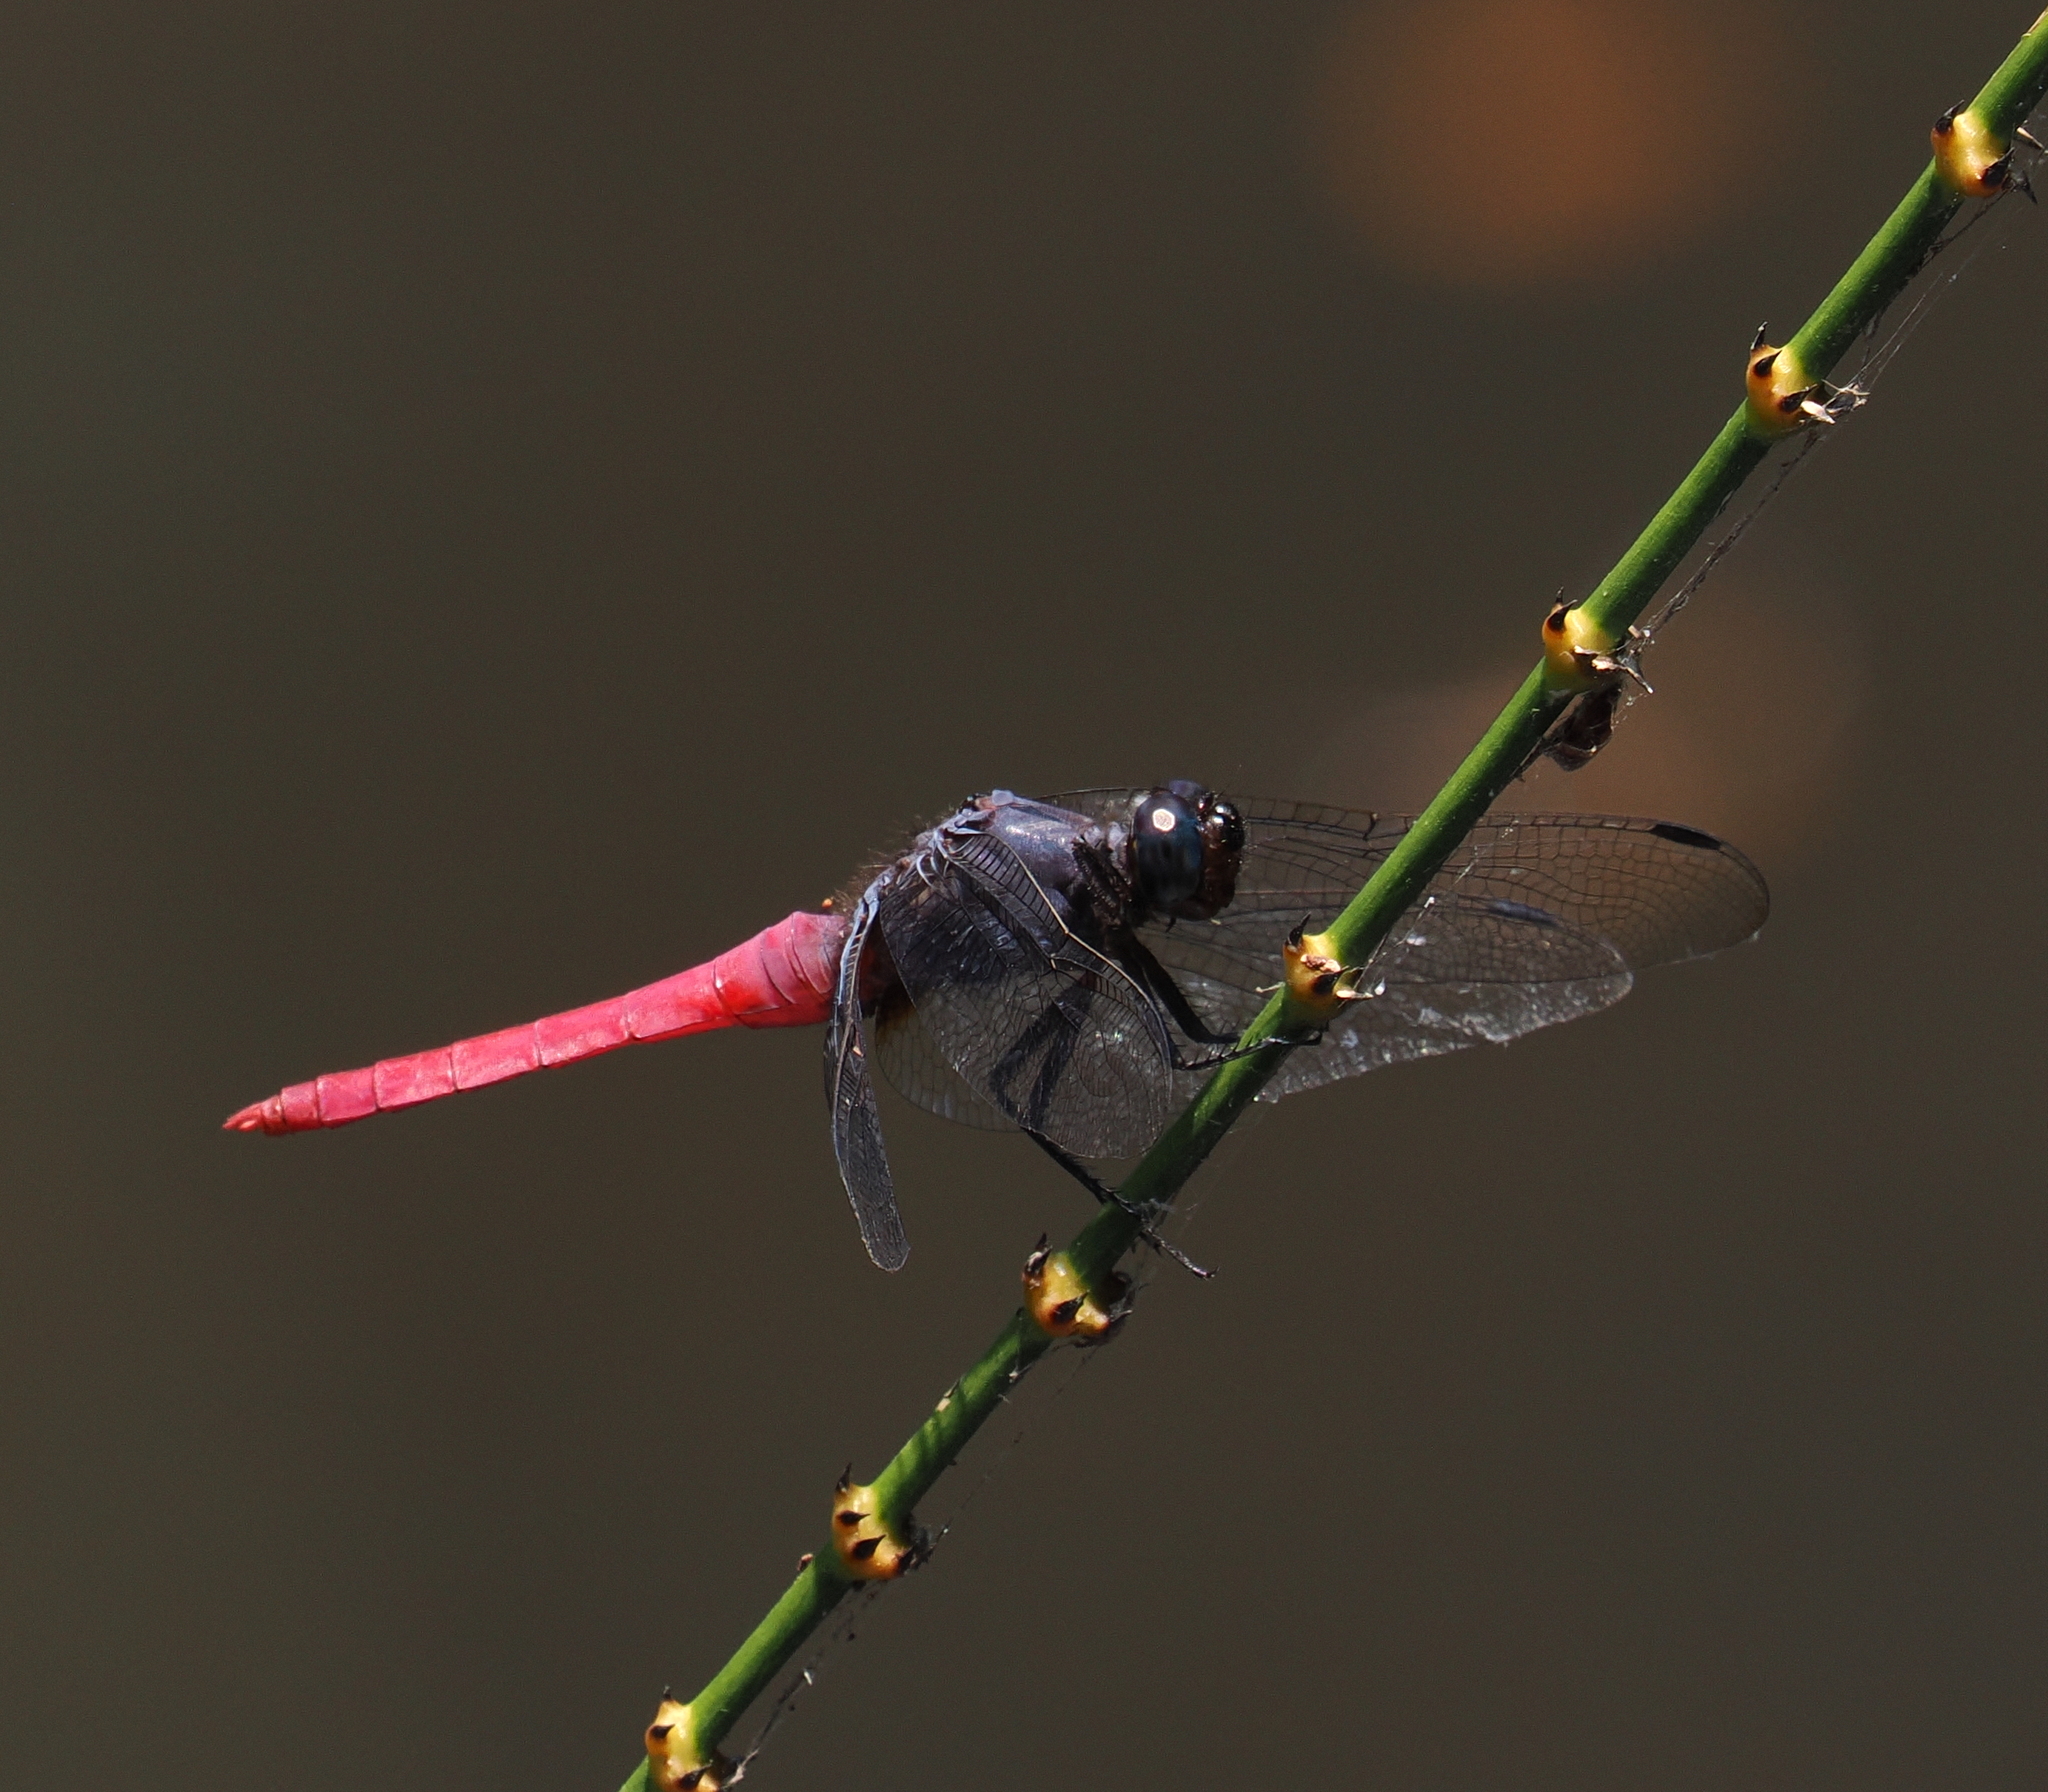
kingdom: Animalia
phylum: Arthropoda
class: Insecta
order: Odonata
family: Libellulidae
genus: Orthetrum
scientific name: Orthetrum pruinosum
